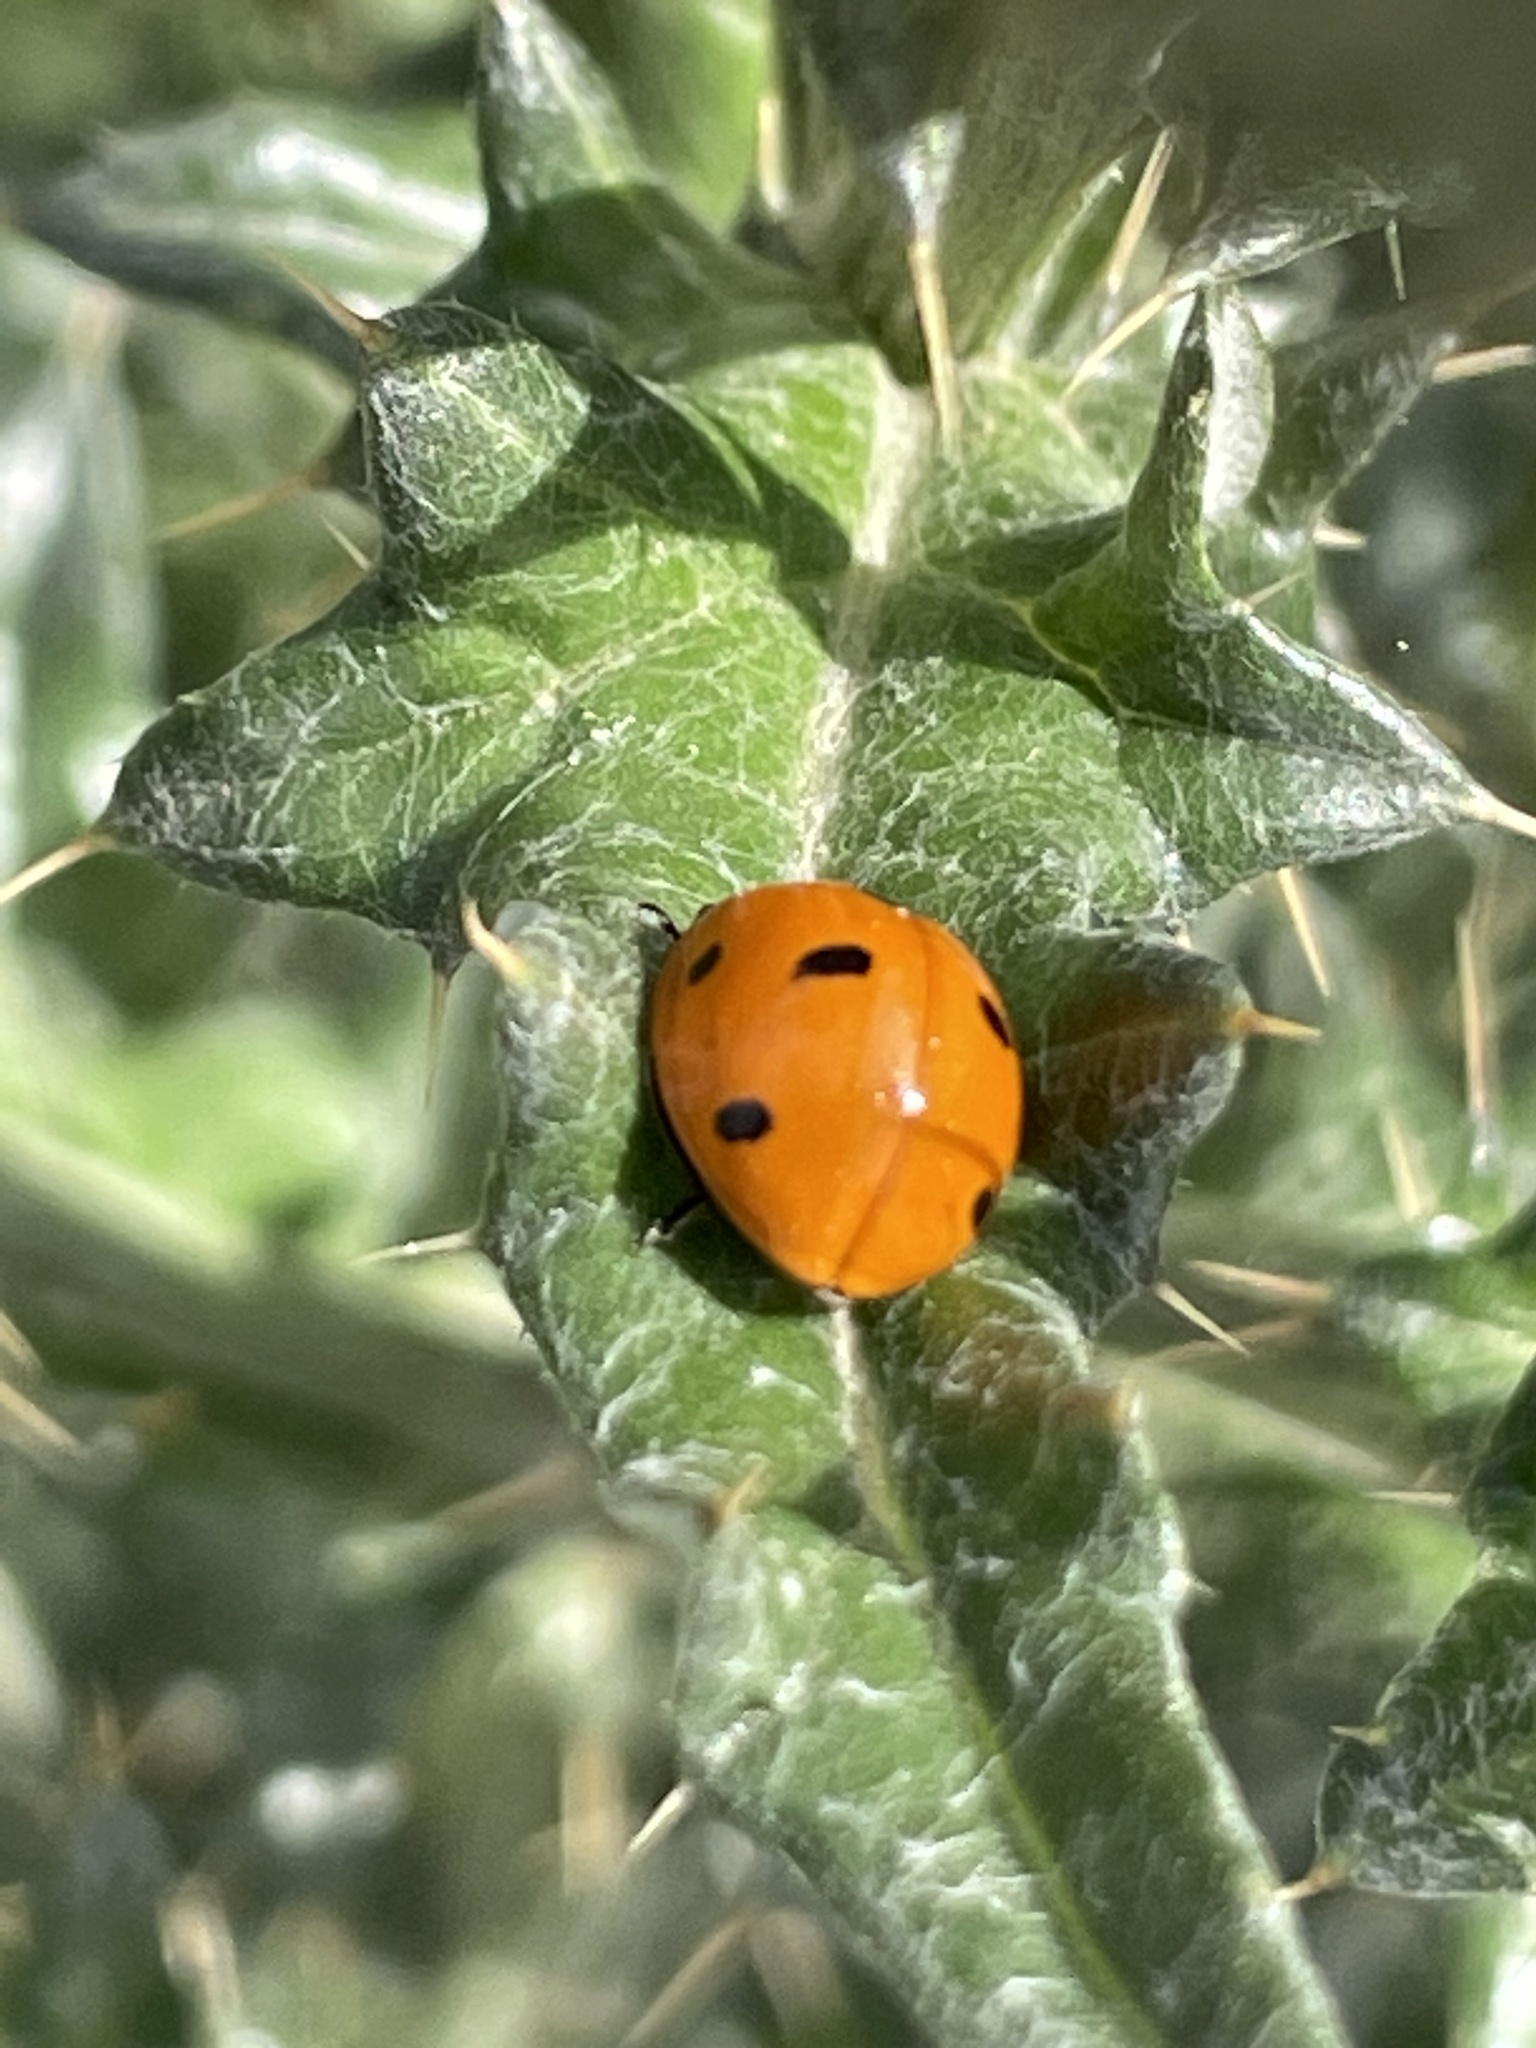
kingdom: Animalia
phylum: Arthropoda
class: Insecta
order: Coleoptera
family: Coccinellidae
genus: Coccinella
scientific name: Coccinella septempunctata
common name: Sevenspotted lady beetle
